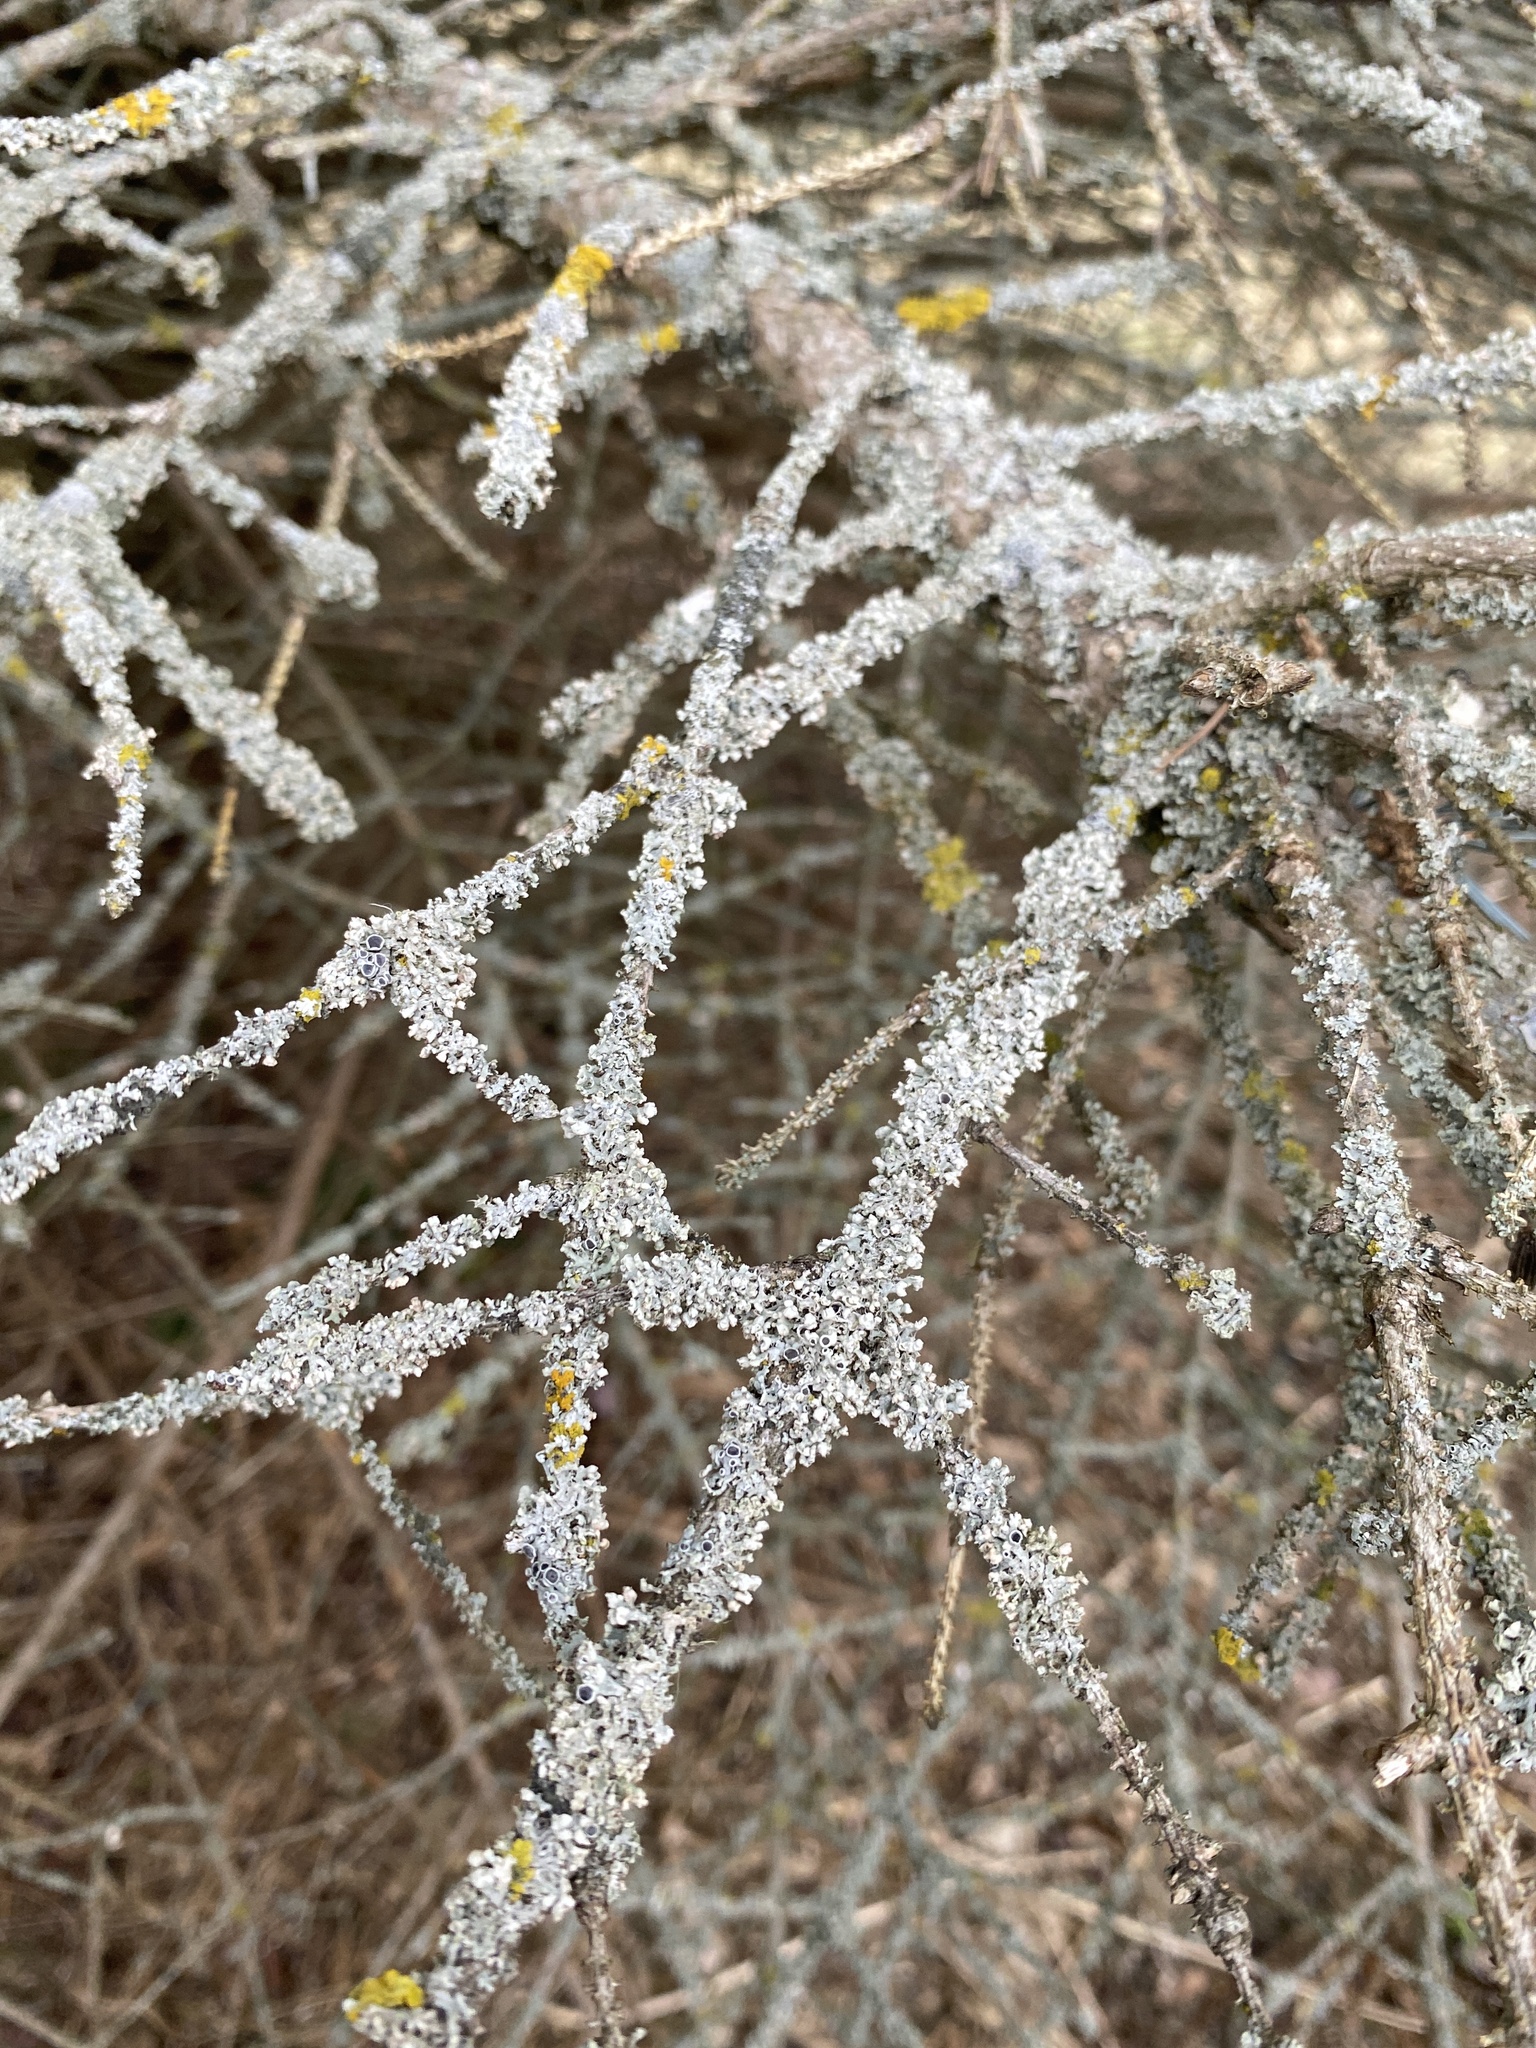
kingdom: Fungi
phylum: Ascomycota
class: Lecanoromycetes
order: Caliciales
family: Physciaceae
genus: Physcia
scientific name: Physcia adscendens
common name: Hooded rosette lichen
